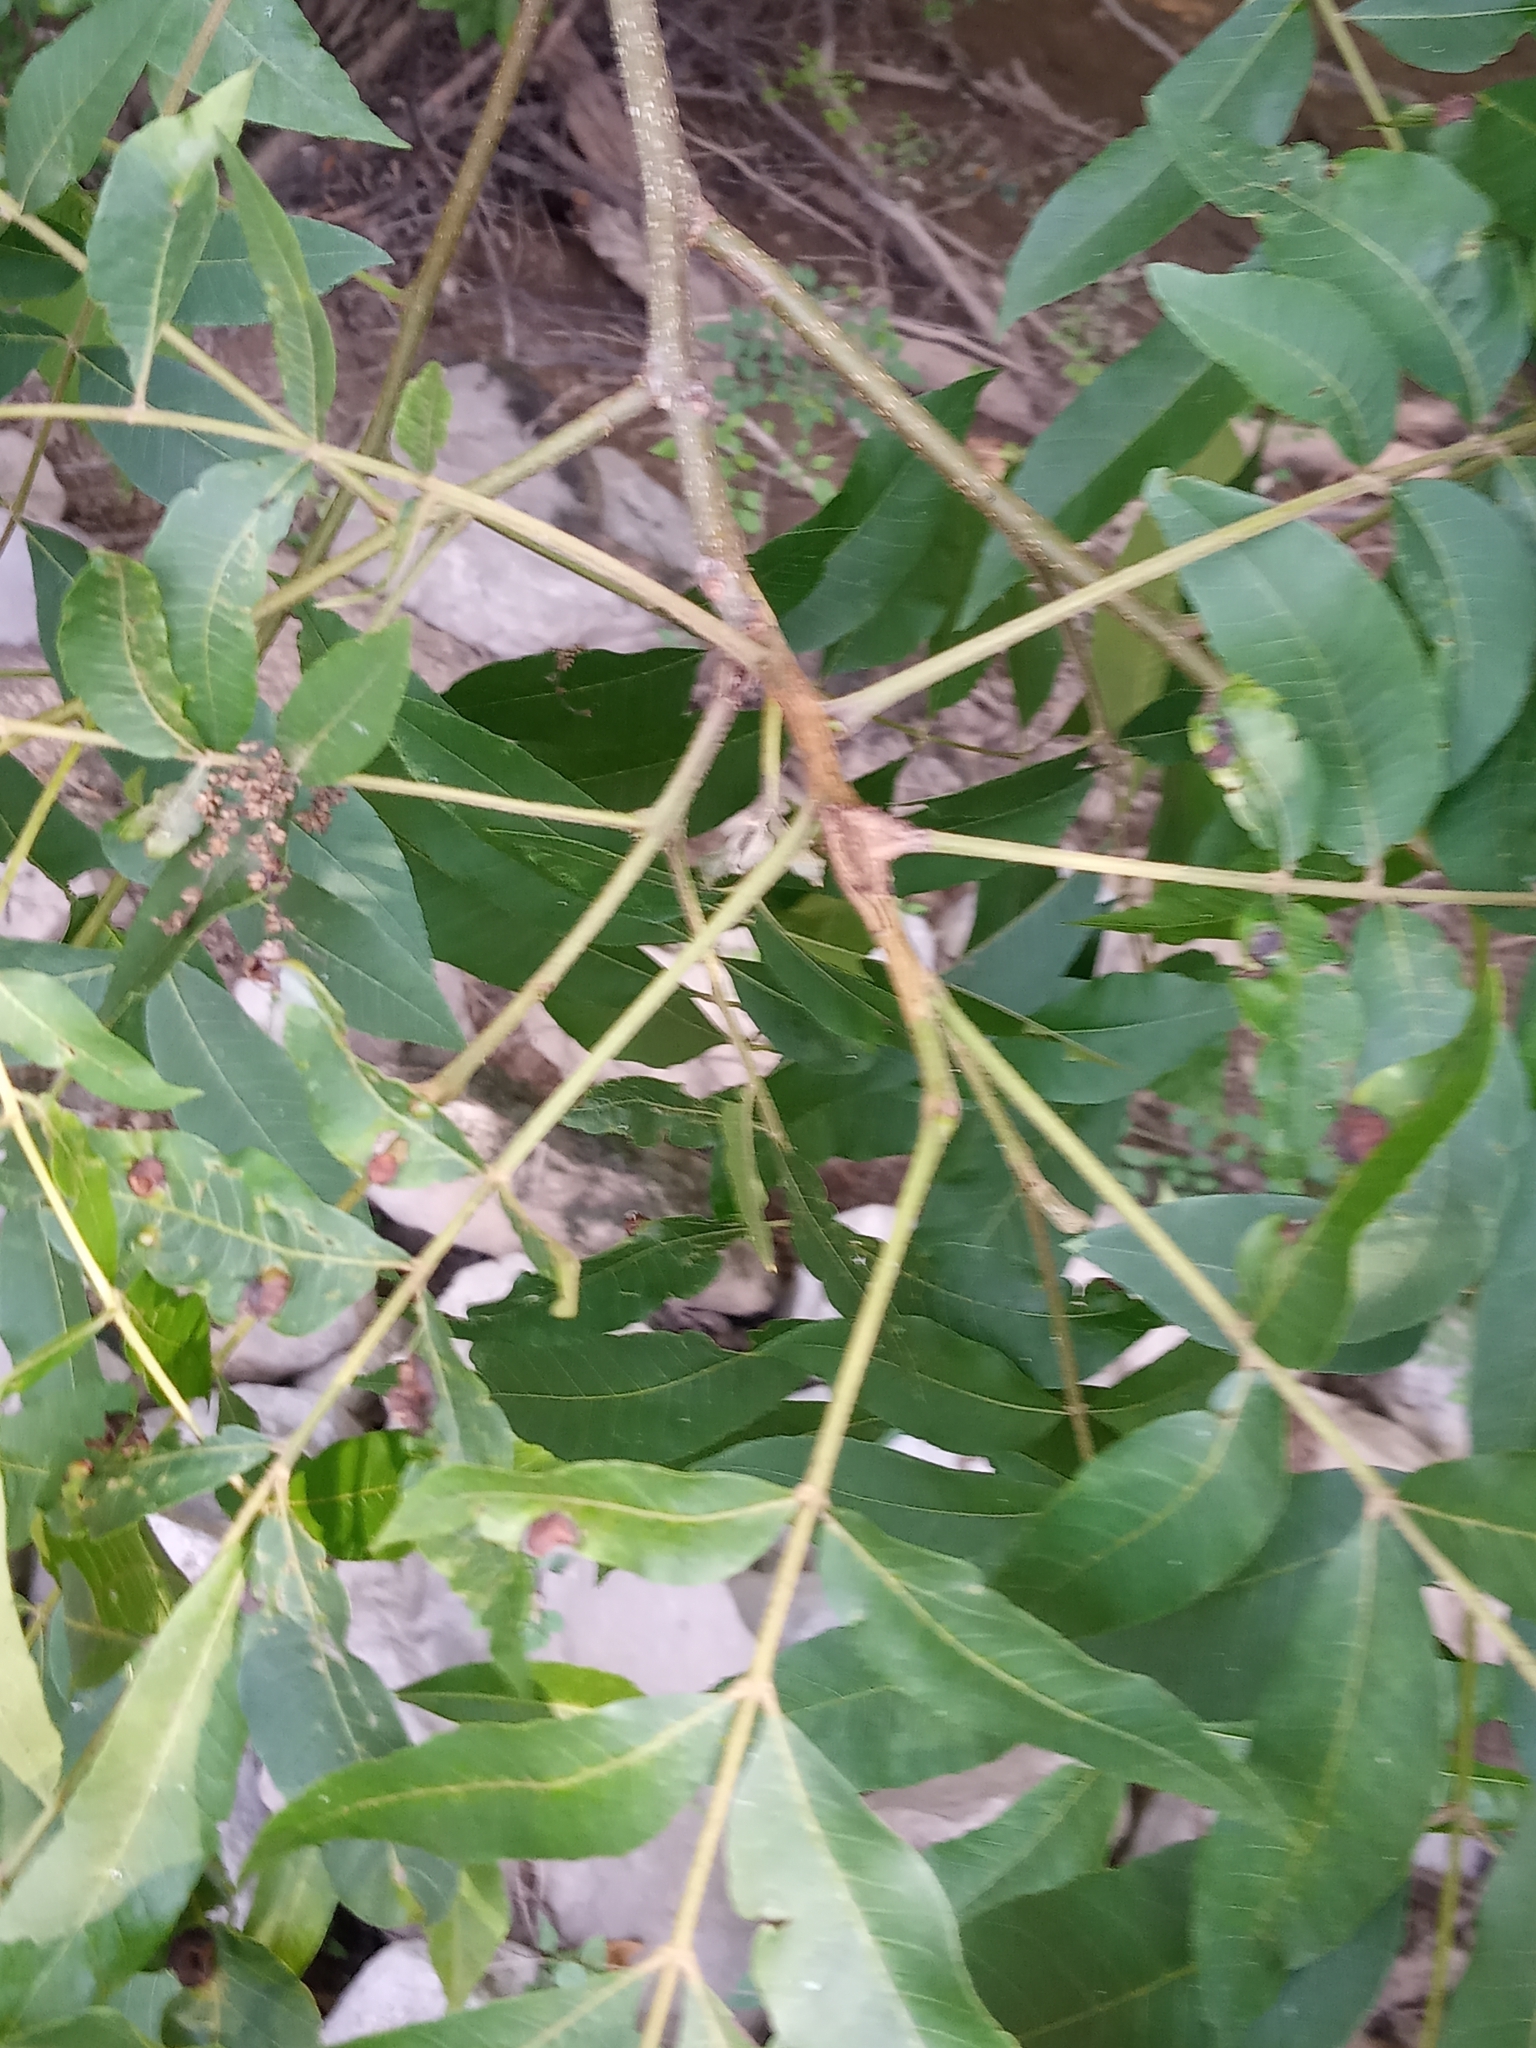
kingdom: Plantae
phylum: Tracheophyta
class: Magnoliopsida
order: Fagales
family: Juglandaceae
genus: Carya
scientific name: Carya aquatica
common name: Water hickory
